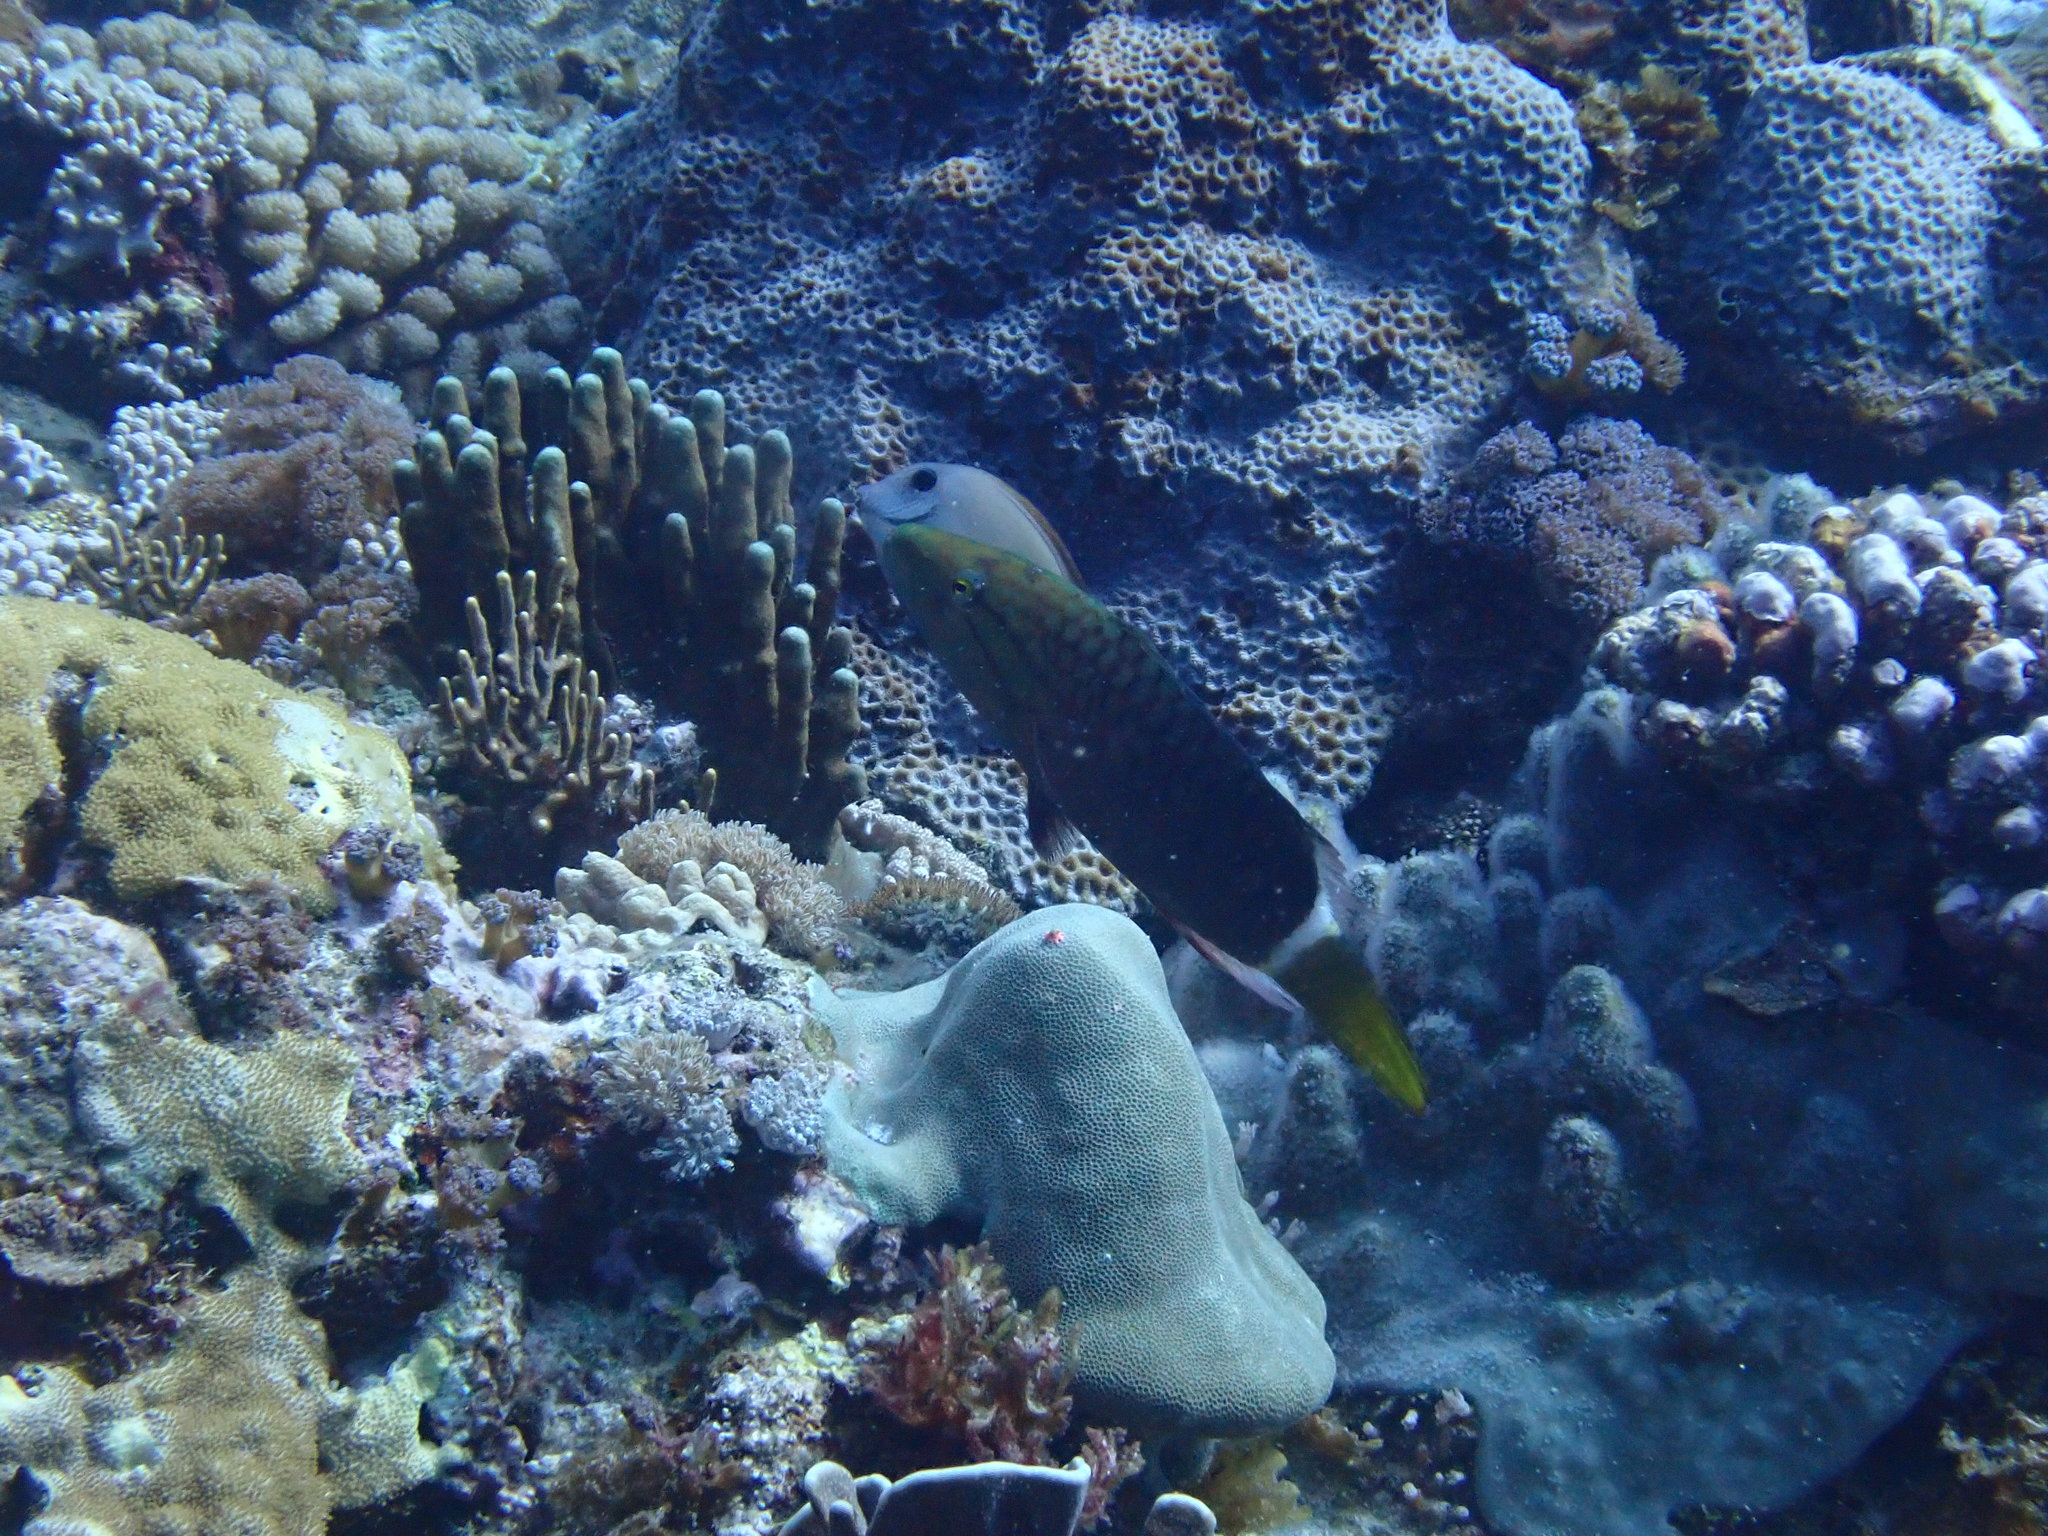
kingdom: Animalia
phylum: Chordata
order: Perciformes
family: Labridae
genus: Oxycheilinus
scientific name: Oxycheilinus unifasciatus
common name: Ringtail maori wrasse
